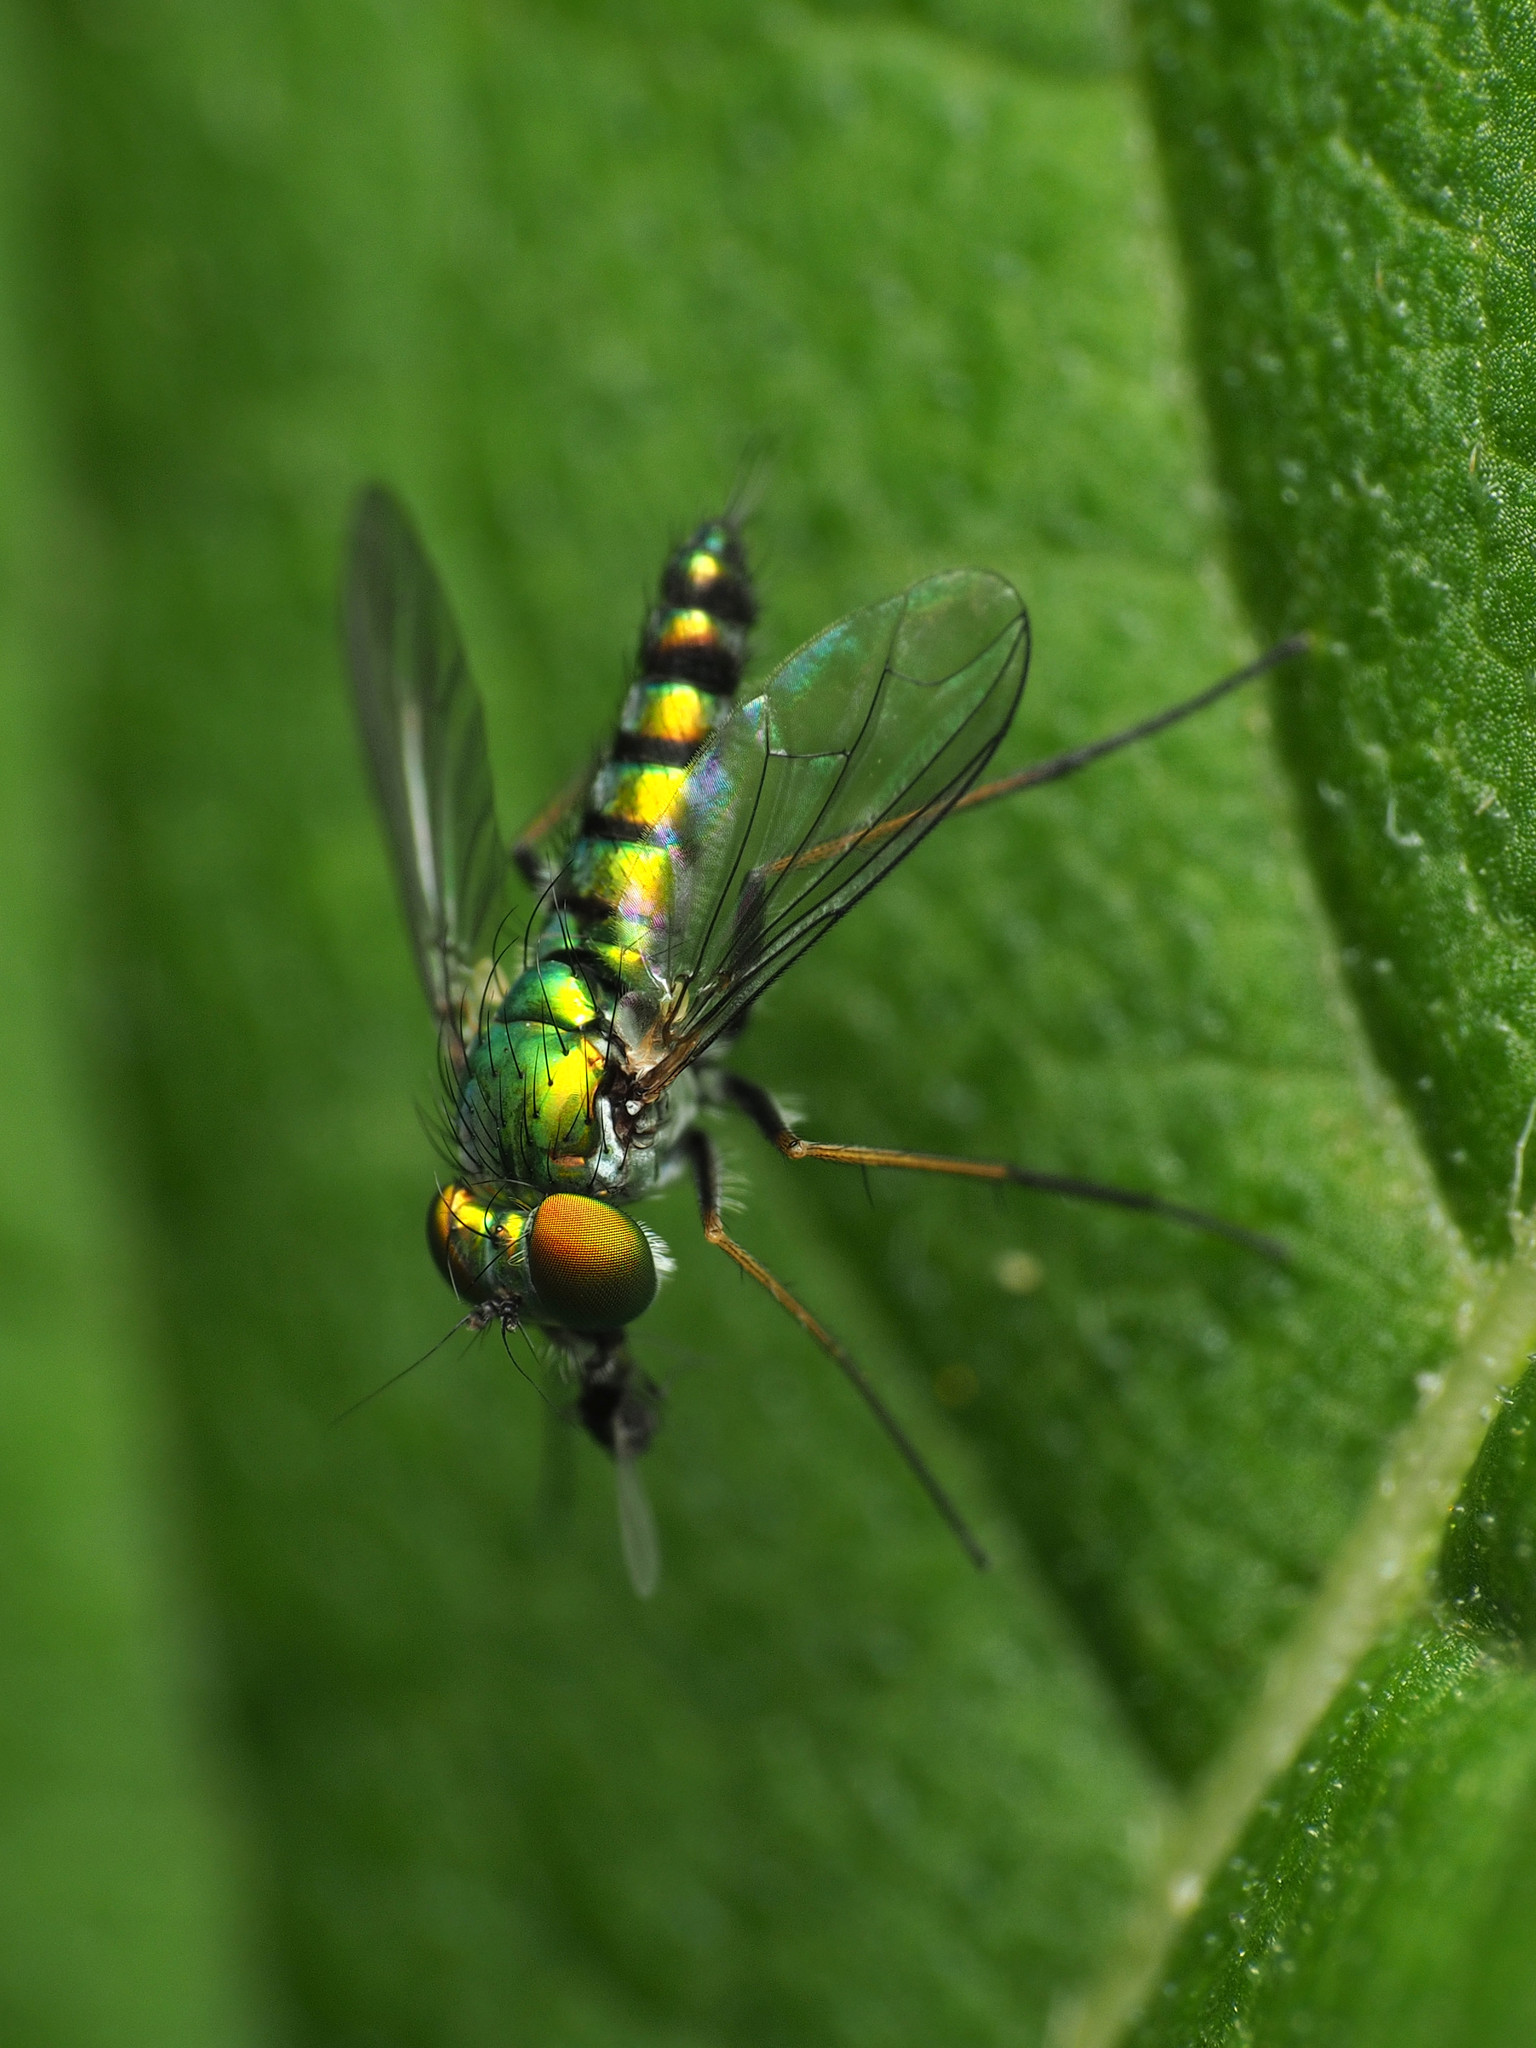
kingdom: Animalia
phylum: Arthropoda
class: Insecta
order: Diptera
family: Dolichopodidae
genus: Condylostylus
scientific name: Condylostylus caudatus
